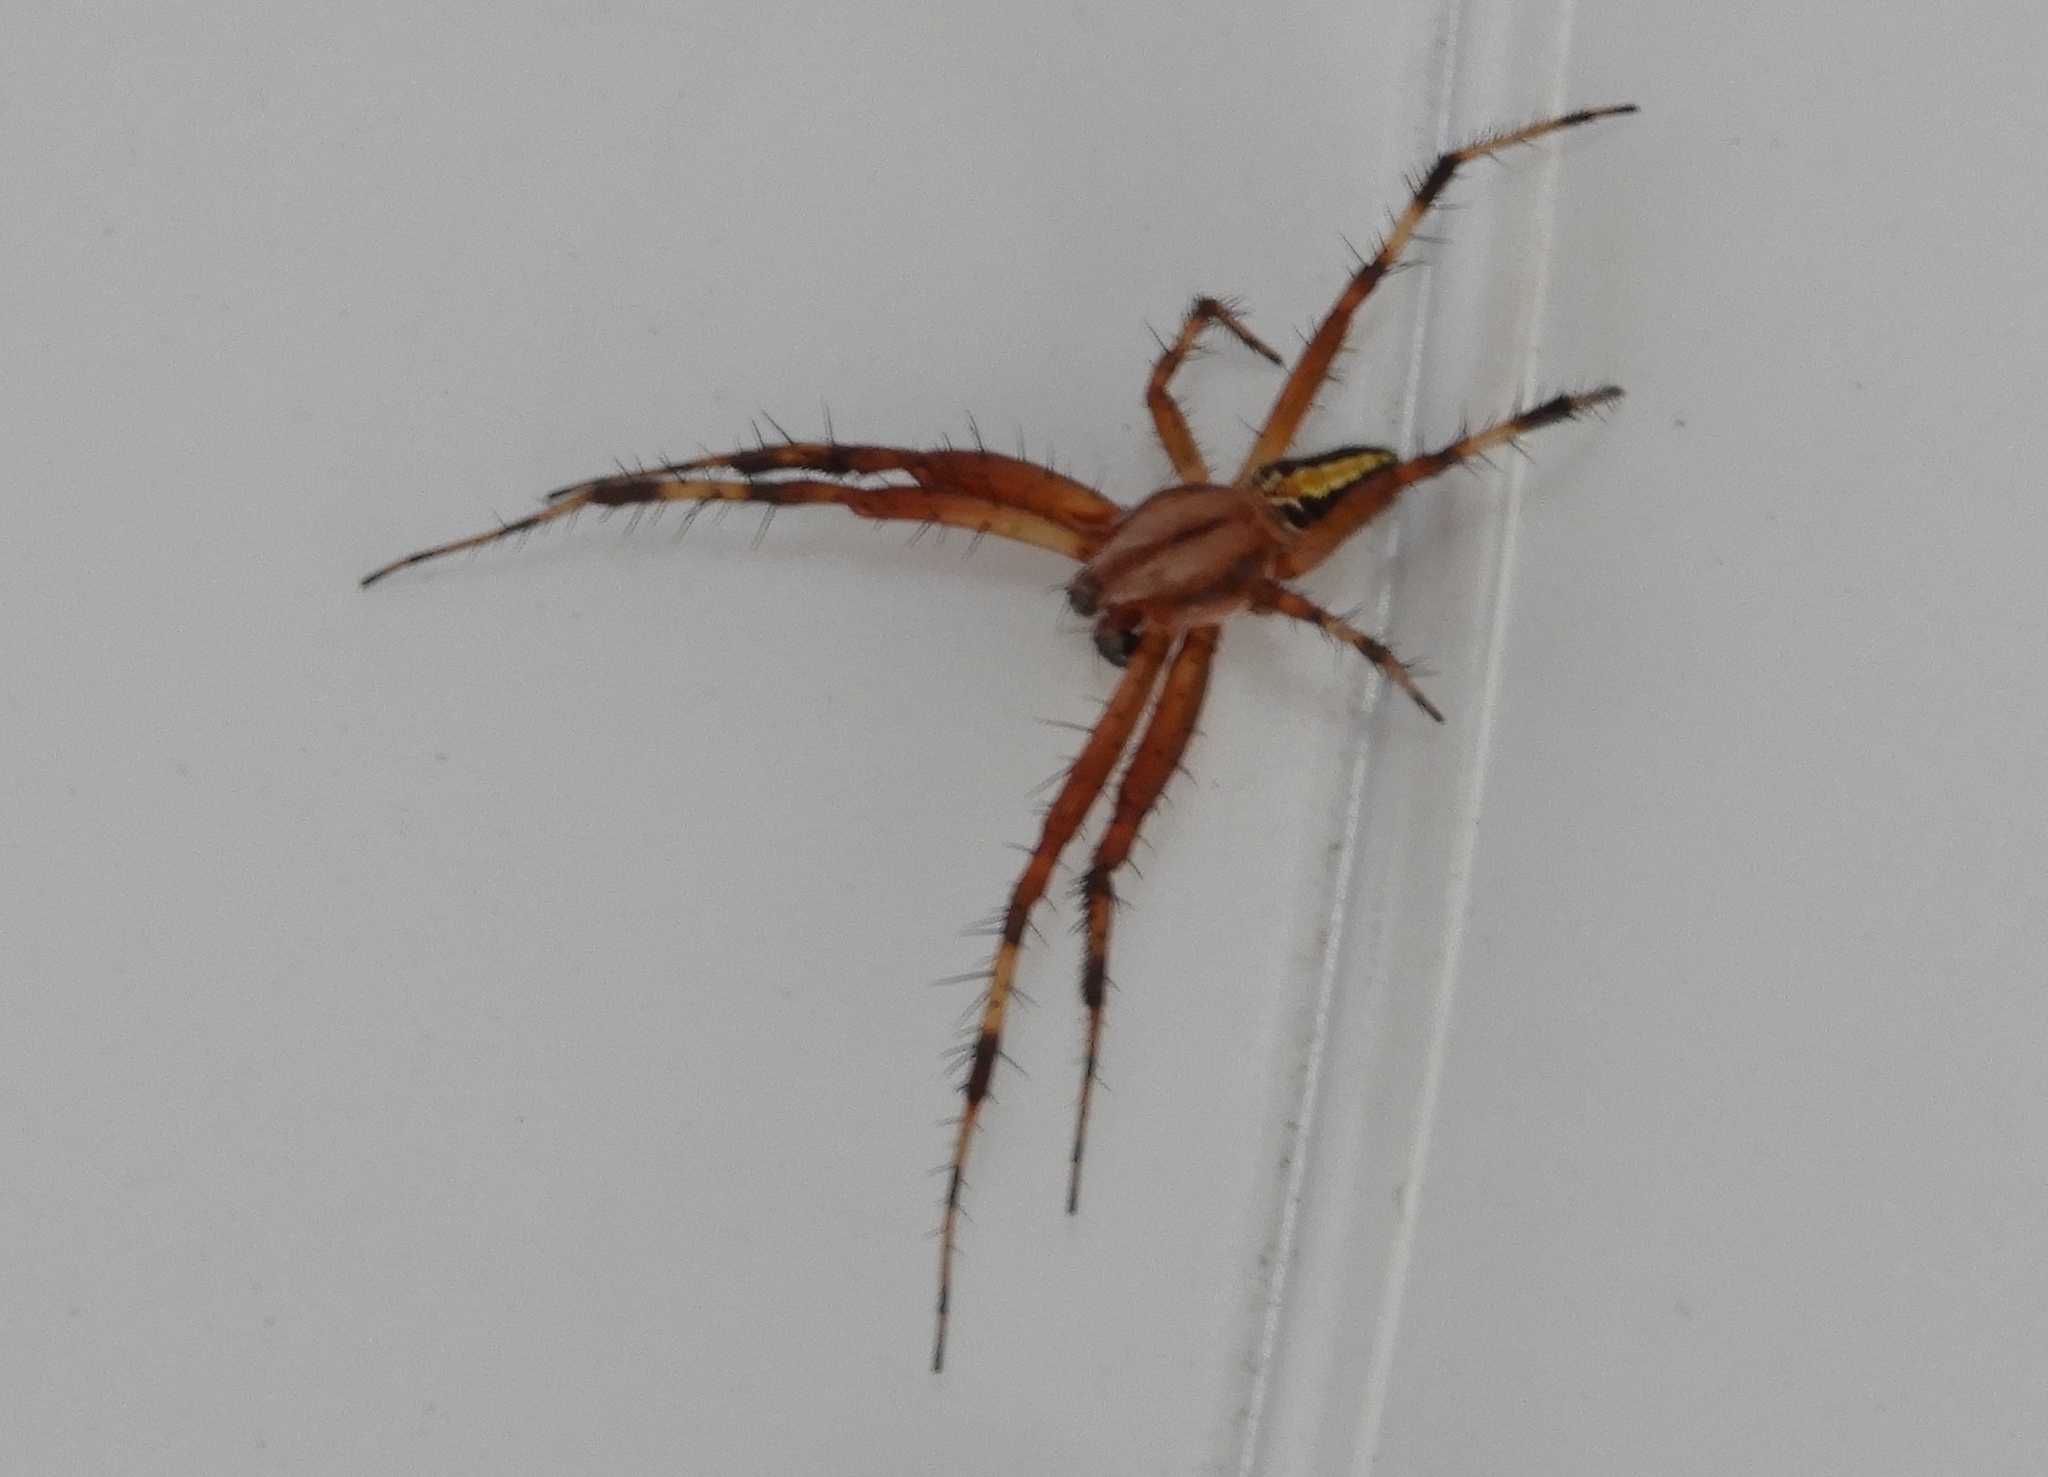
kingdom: Animalia
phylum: Arthropoda
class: Arachnida
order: Araneae
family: Araneidae
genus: Neoscona
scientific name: Neoscona
